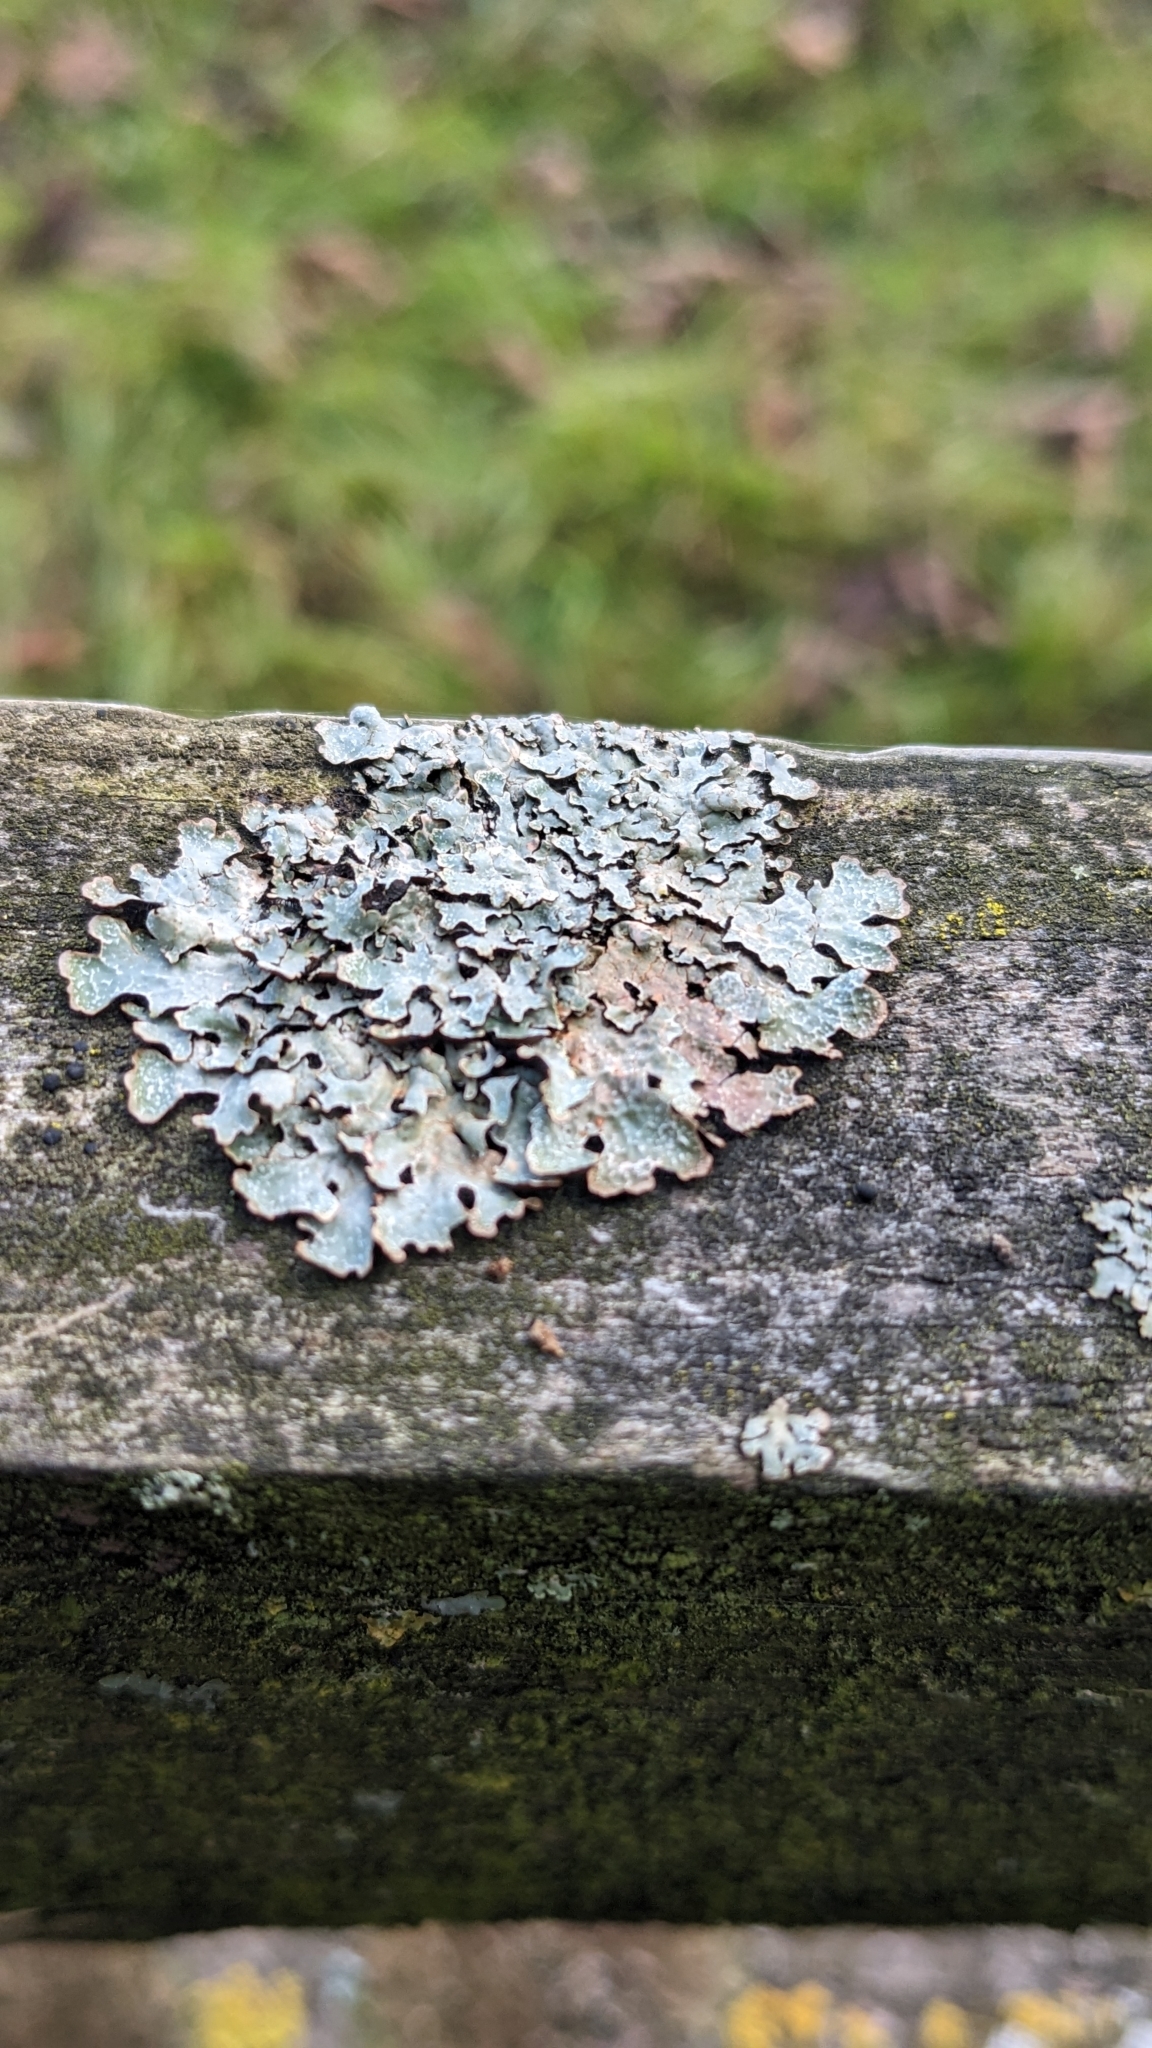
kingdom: Fungi
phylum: Ascomycota
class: Lecanoromycetes
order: Lecanorales
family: Parmeliaceae
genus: Parmelia
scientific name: Parmelia sulcata
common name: Netted shield lichen
